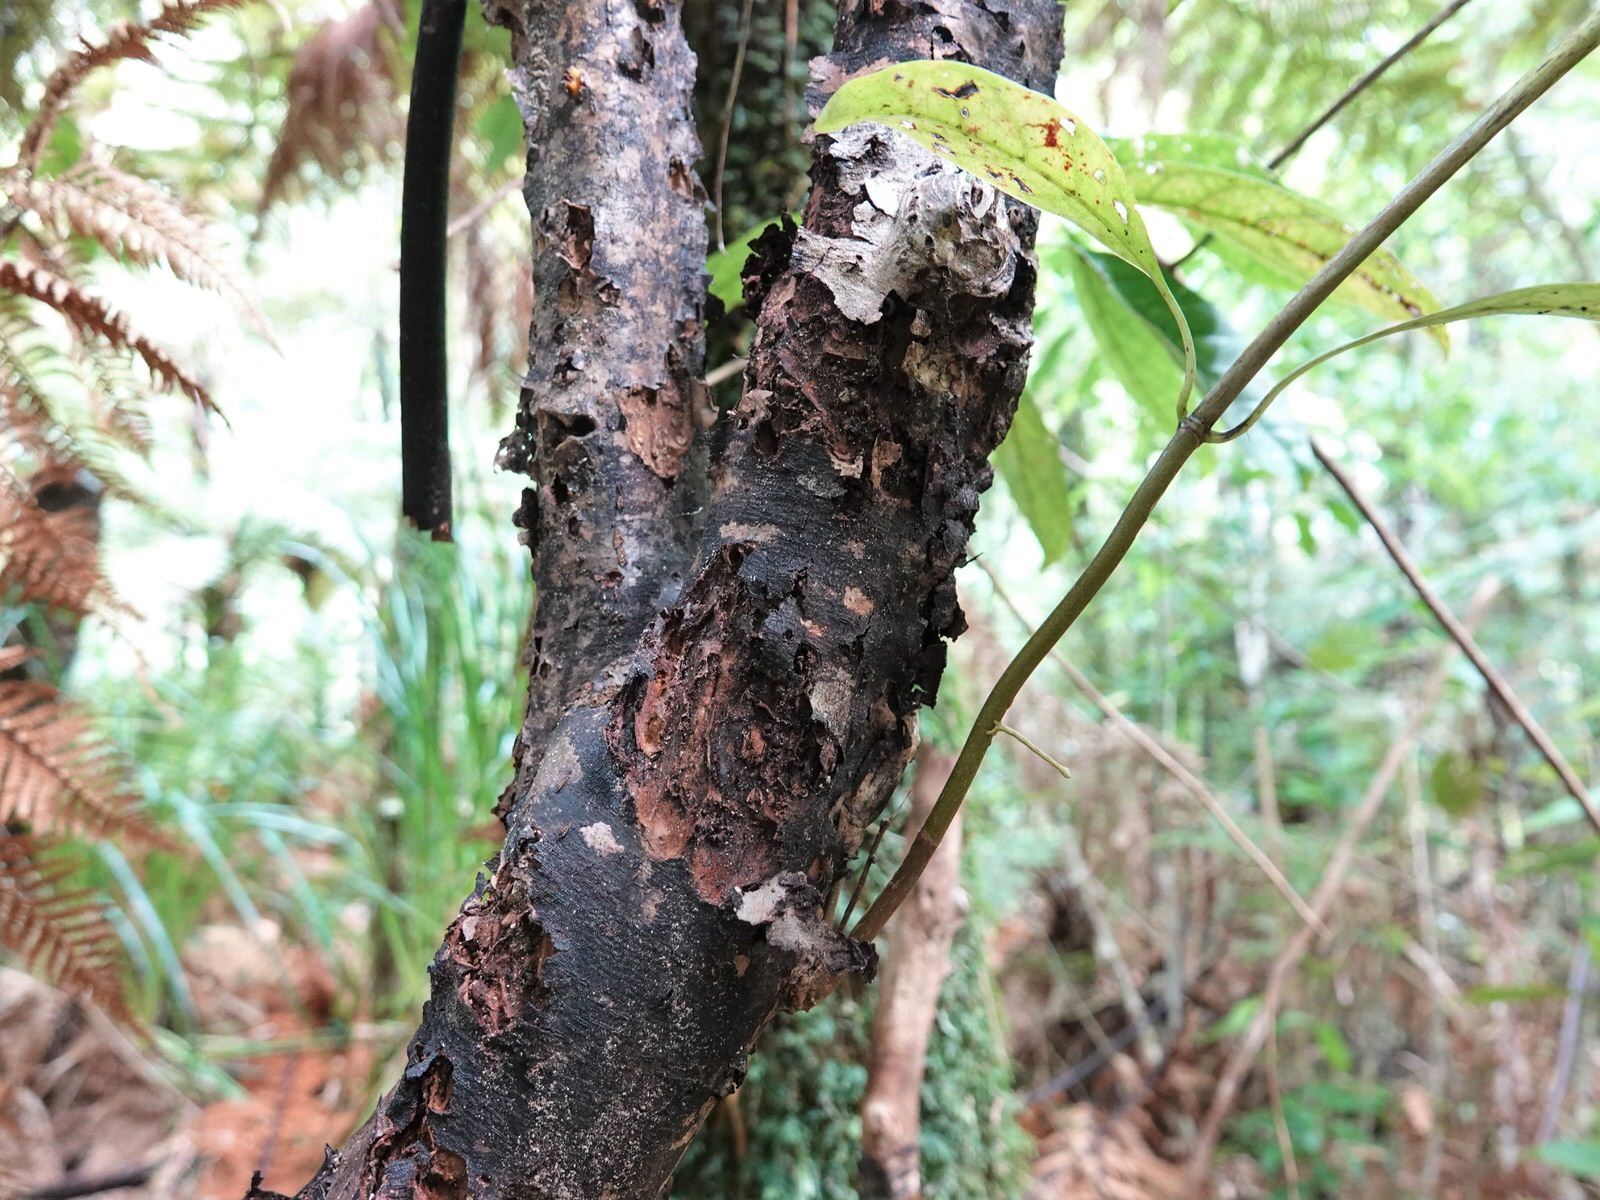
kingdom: Plantae
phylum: Tracheophyta
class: Magnoliopsida
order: Gentianales
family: Rubiaceae
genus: Coprosma
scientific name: Coprosma autumnalis
